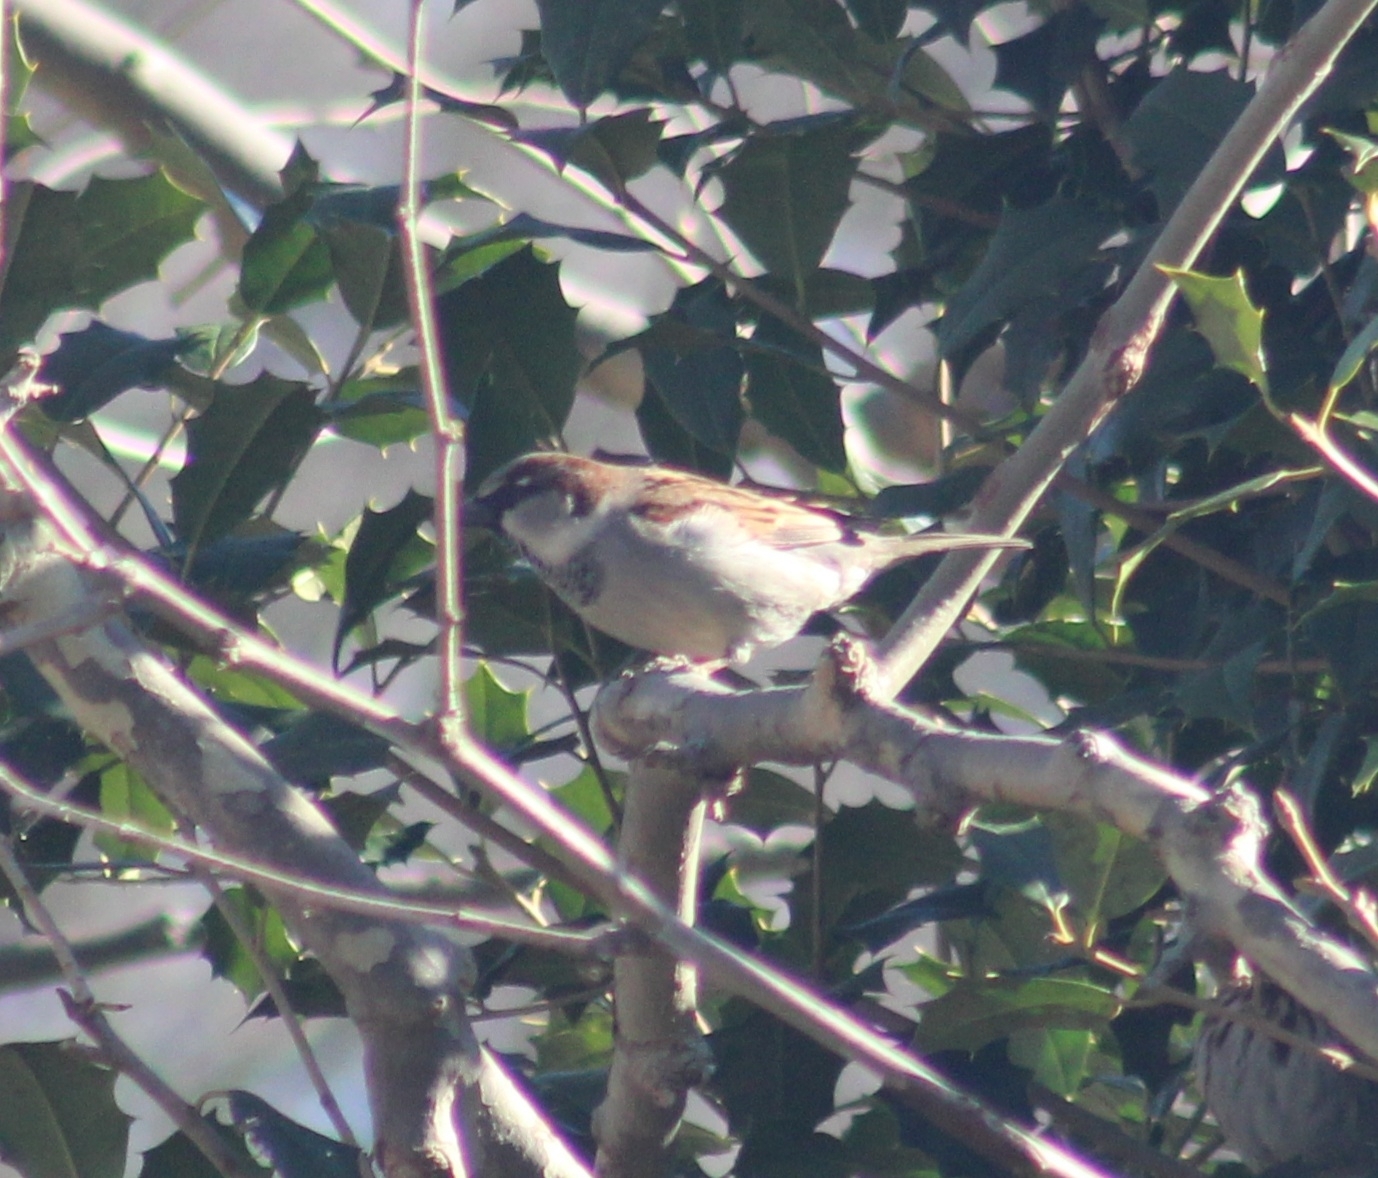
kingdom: Animalia
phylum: Chordata
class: Aves
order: Passeriformes
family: Passeridae
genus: Passer
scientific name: Passer domesticus
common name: House sparrow
